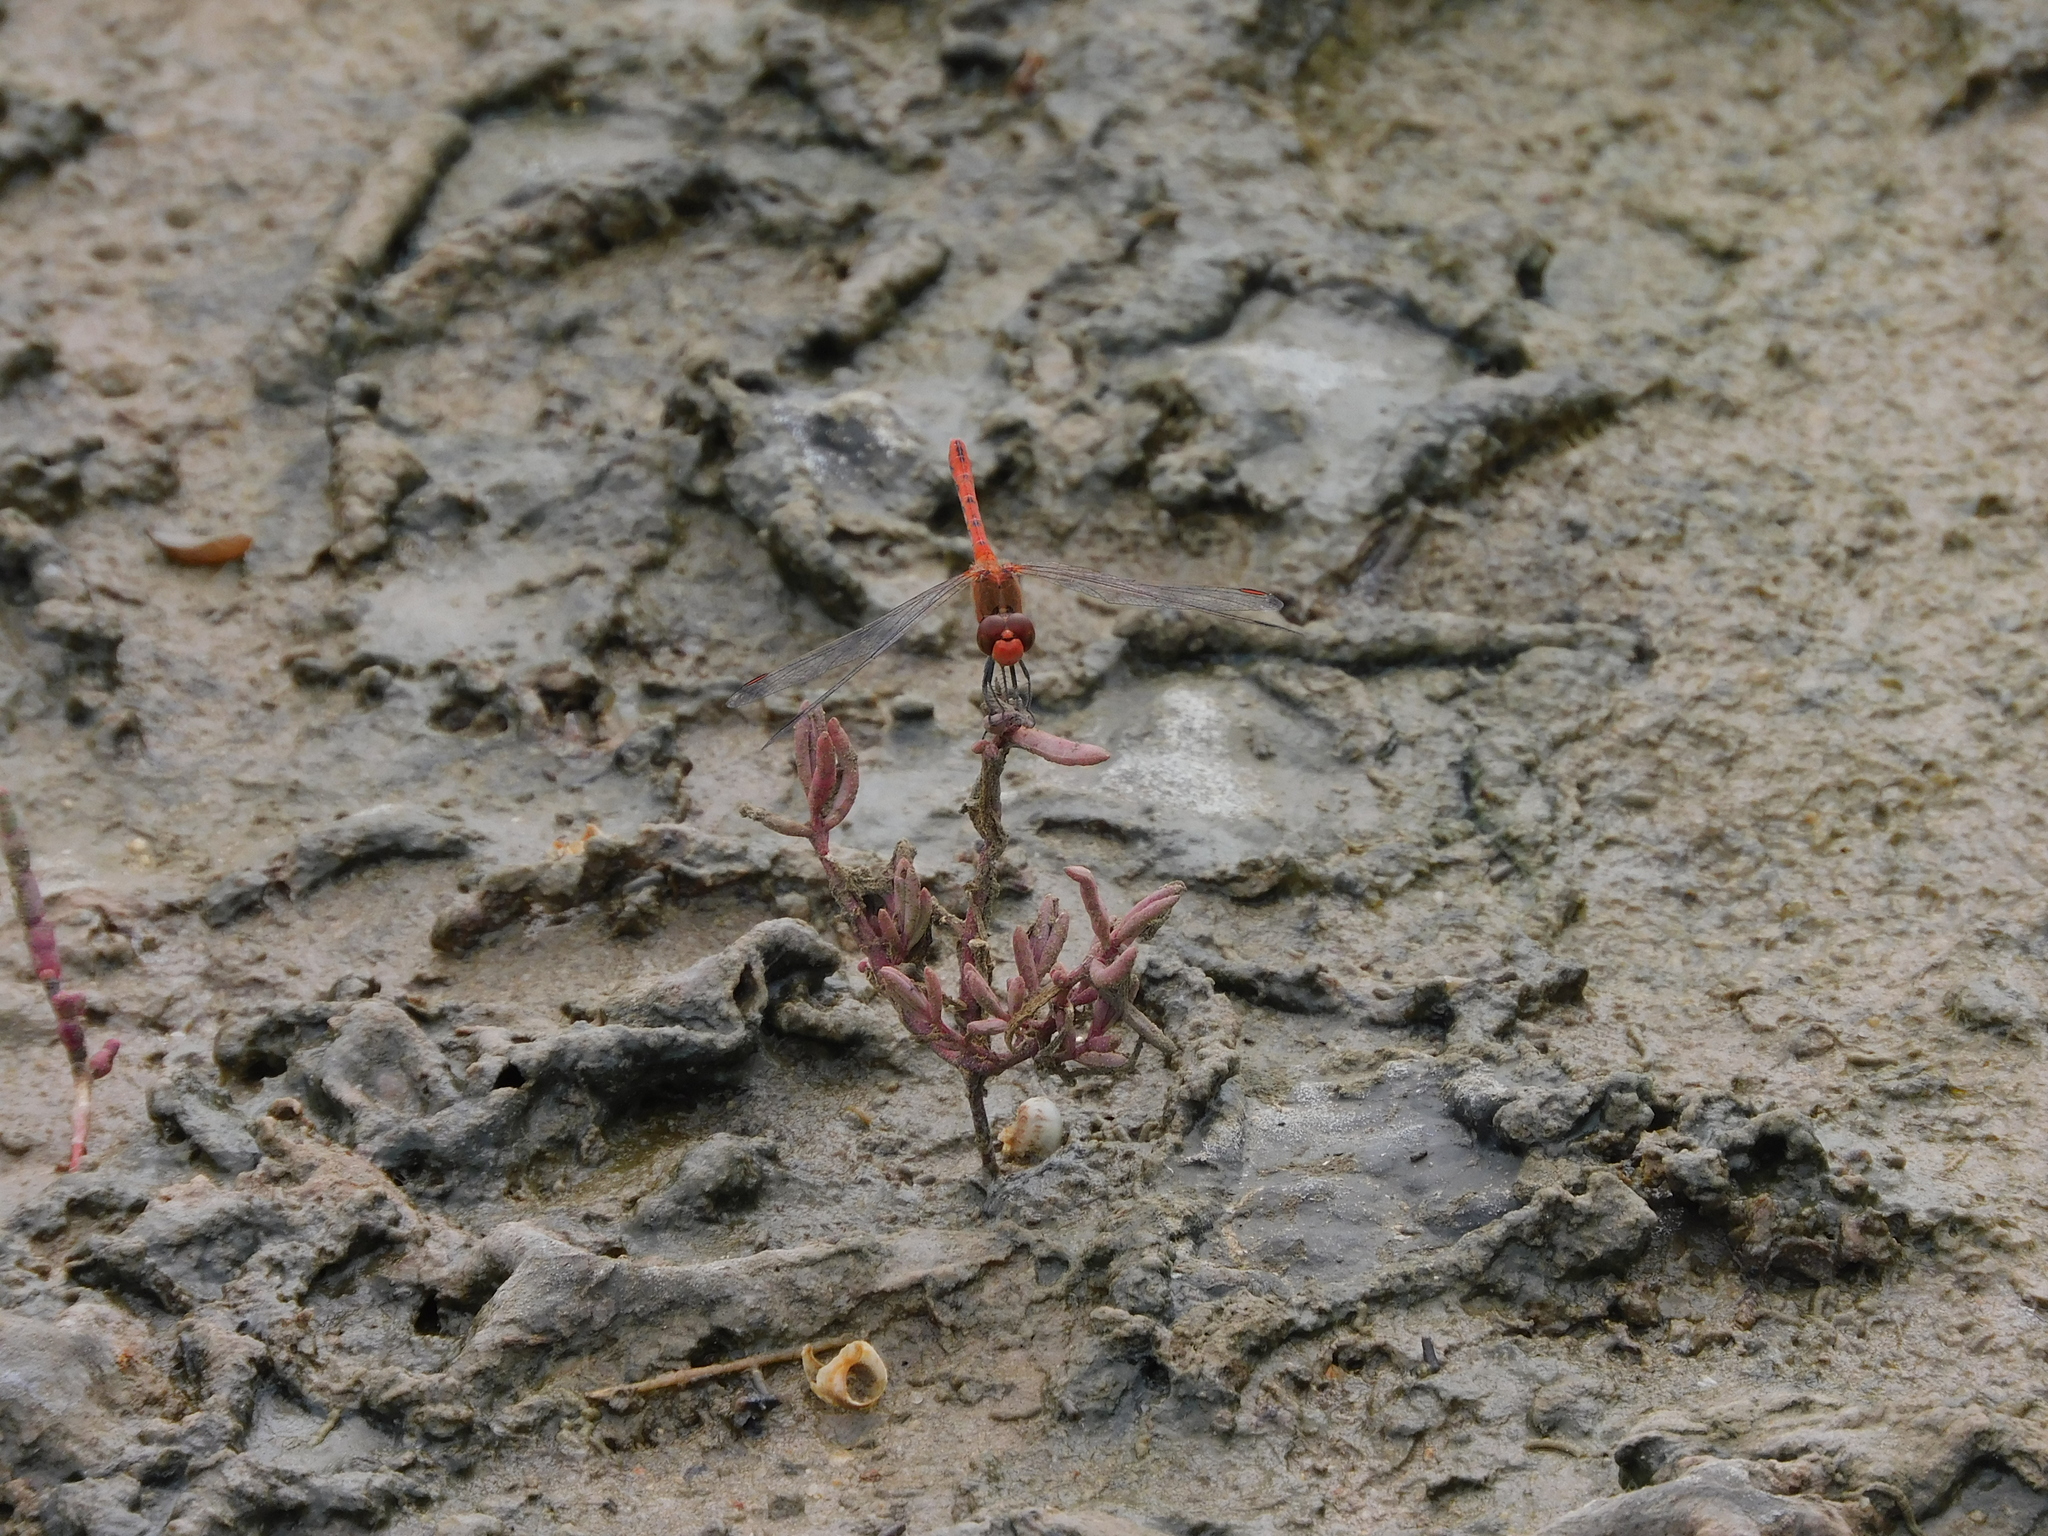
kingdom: Animalia
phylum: Arthropoda
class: Insecta
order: Odonata
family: Libellulidae
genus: Diplacodes
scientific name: Diplacodes bipunctata
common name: Red percher dragonfly
